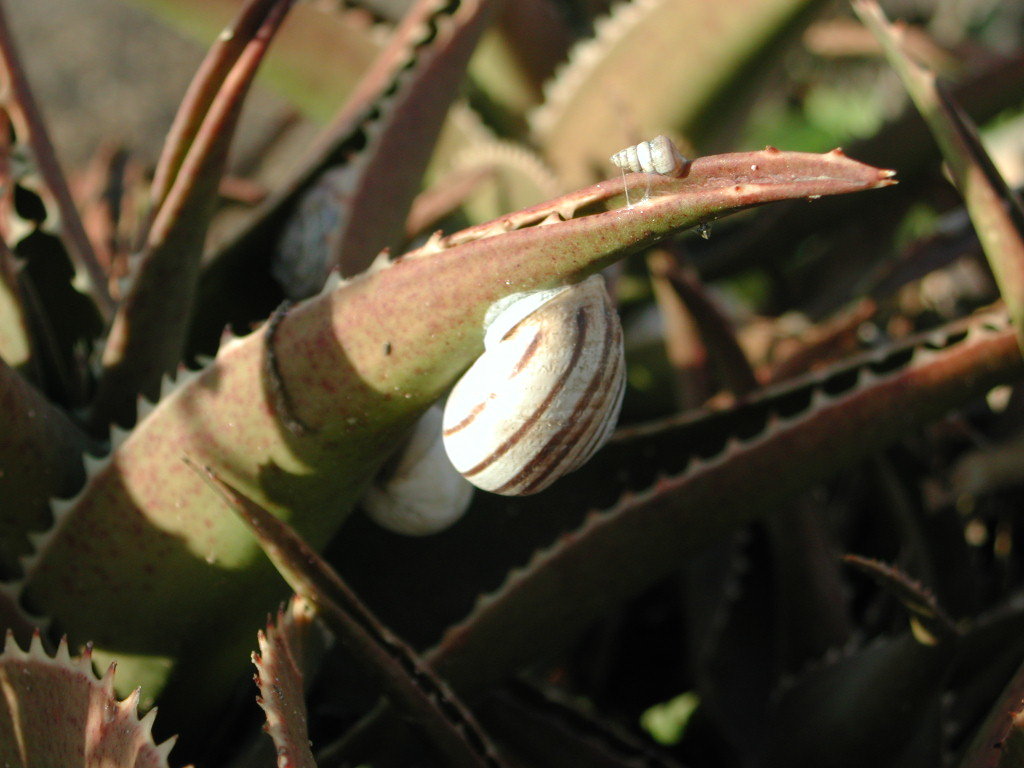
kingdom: Animalia
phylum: Mollusca
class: Gastropoda
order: Stylommatophora
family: Helicidae
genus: Eobania
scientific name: Eobania vermiculata
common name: Chocolateband snail
